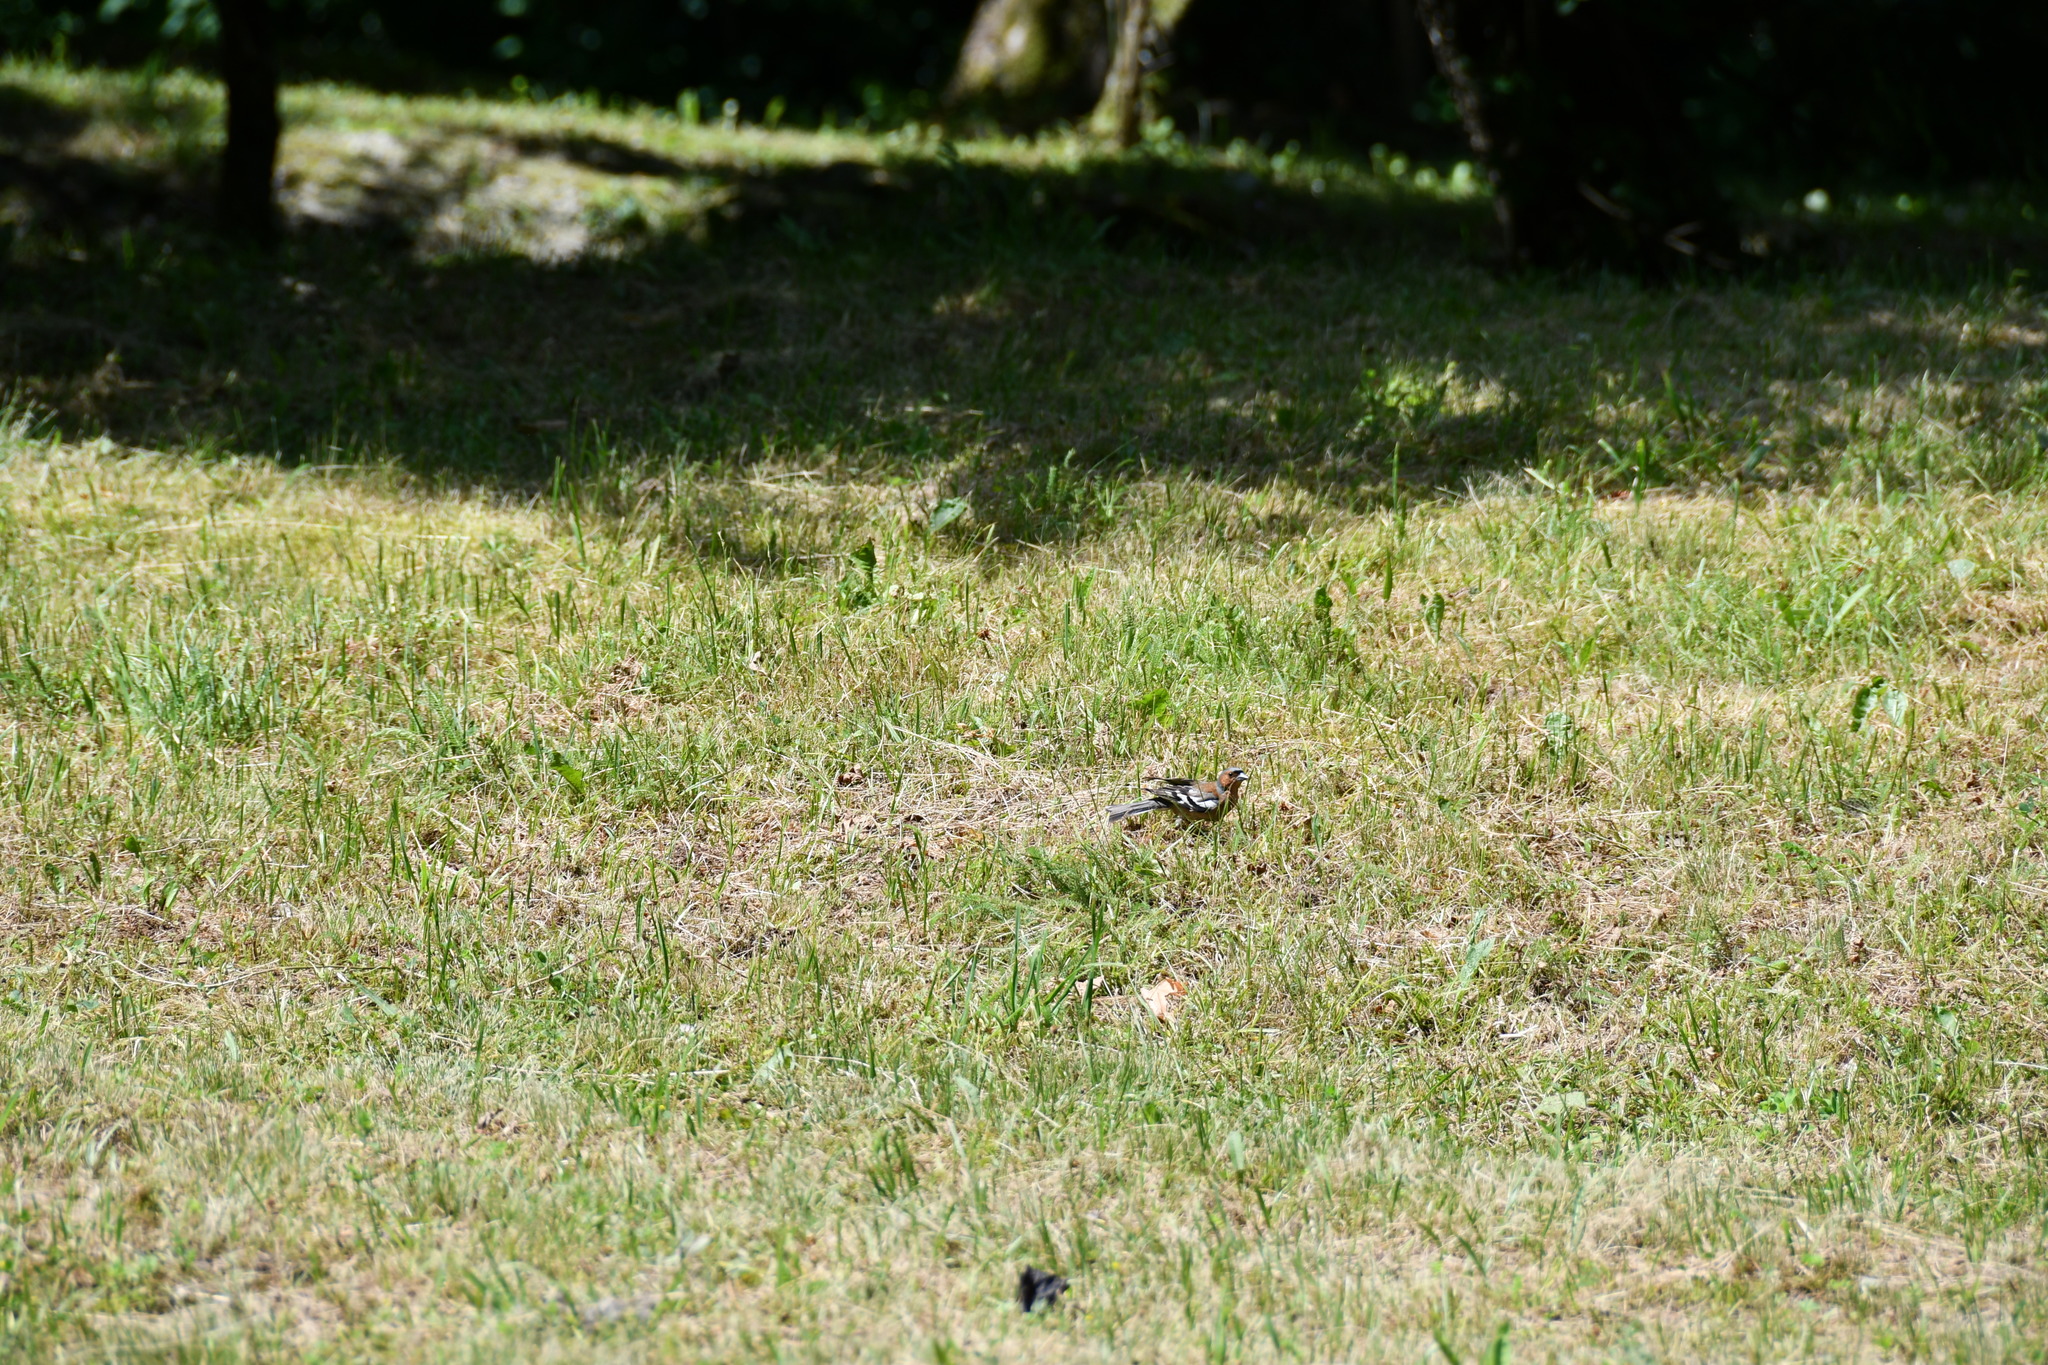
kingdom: Animalia
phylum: Chordata
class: Aves
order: Passeriformes
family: Fringillidae
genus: Fringilla
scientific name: Fringilla coelebs
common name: Common chaffinch
